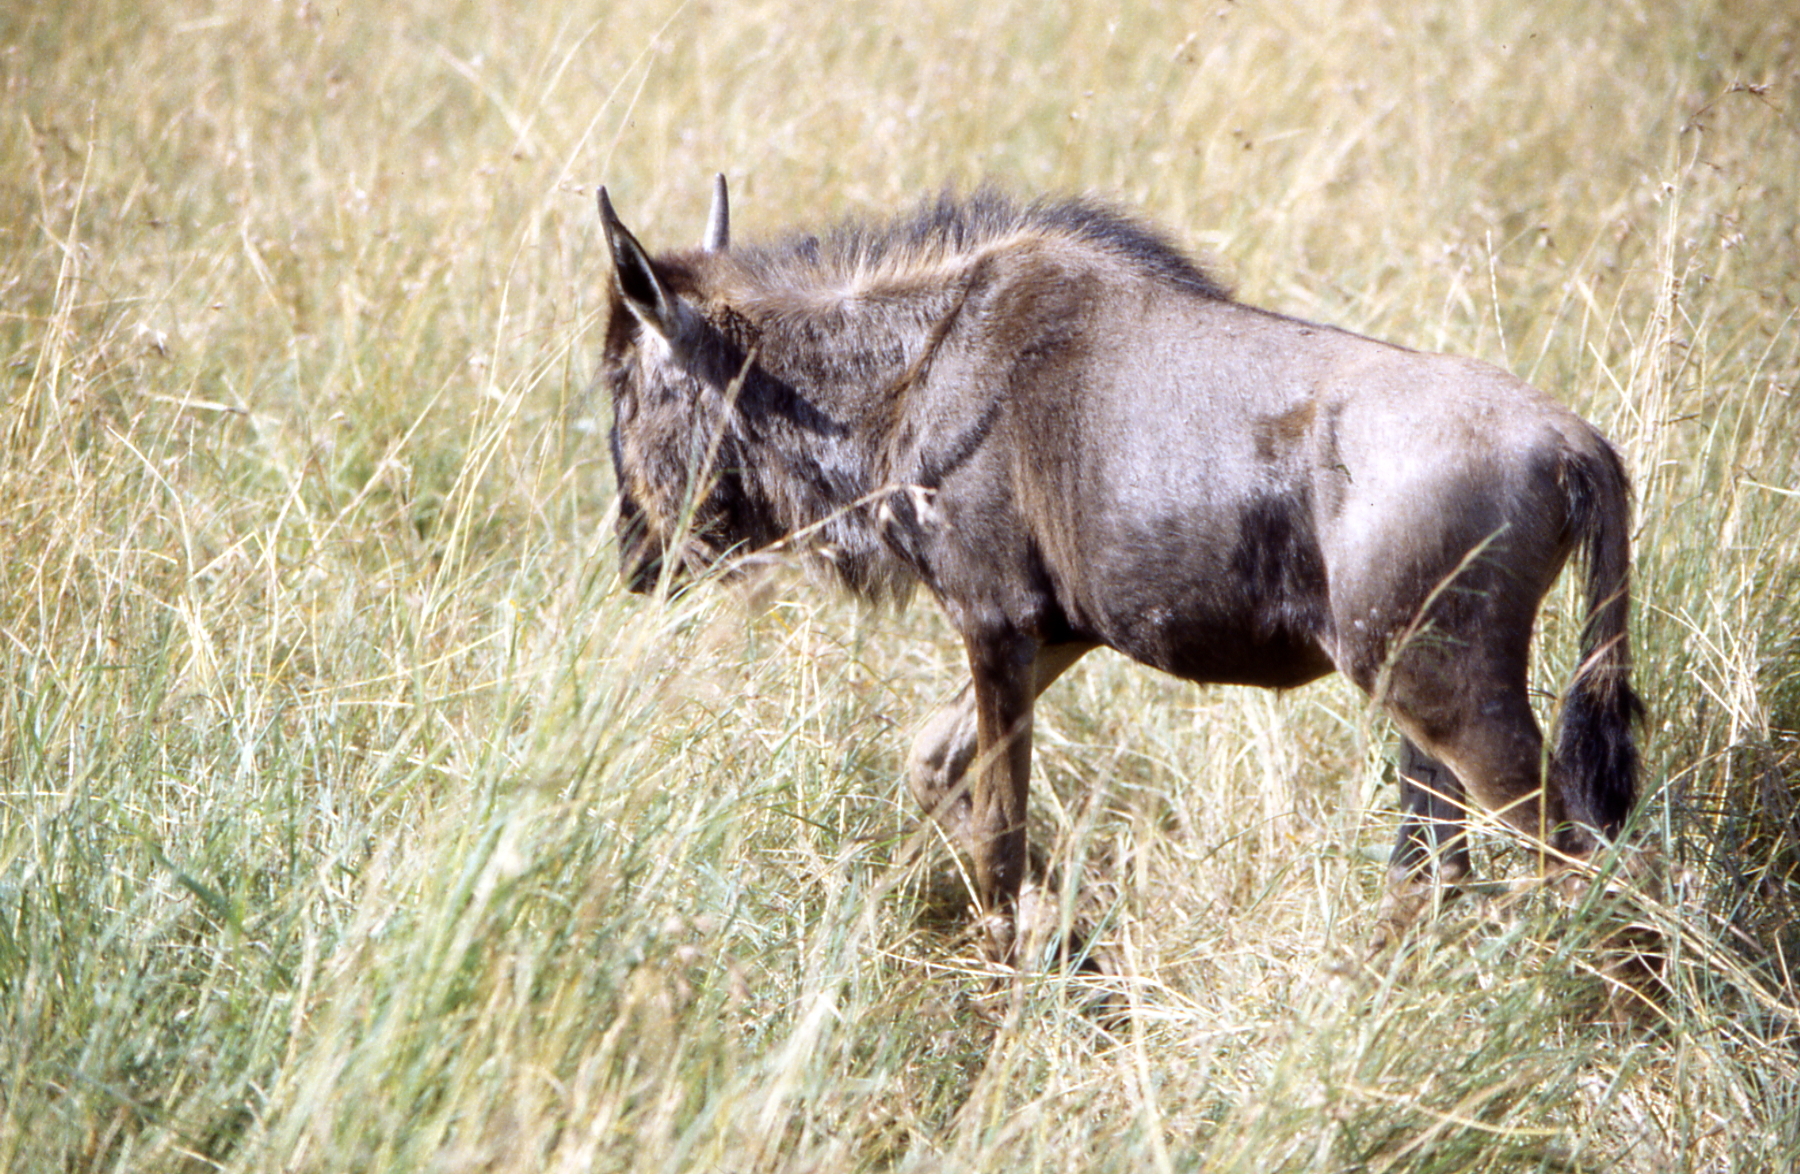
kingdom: Animalia
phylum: Chordata
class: Mammalia
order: Artiodactyla
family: Bovidae
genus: Connochaetes
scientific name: Connochaetes taurinus
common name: Blue wildebeest
